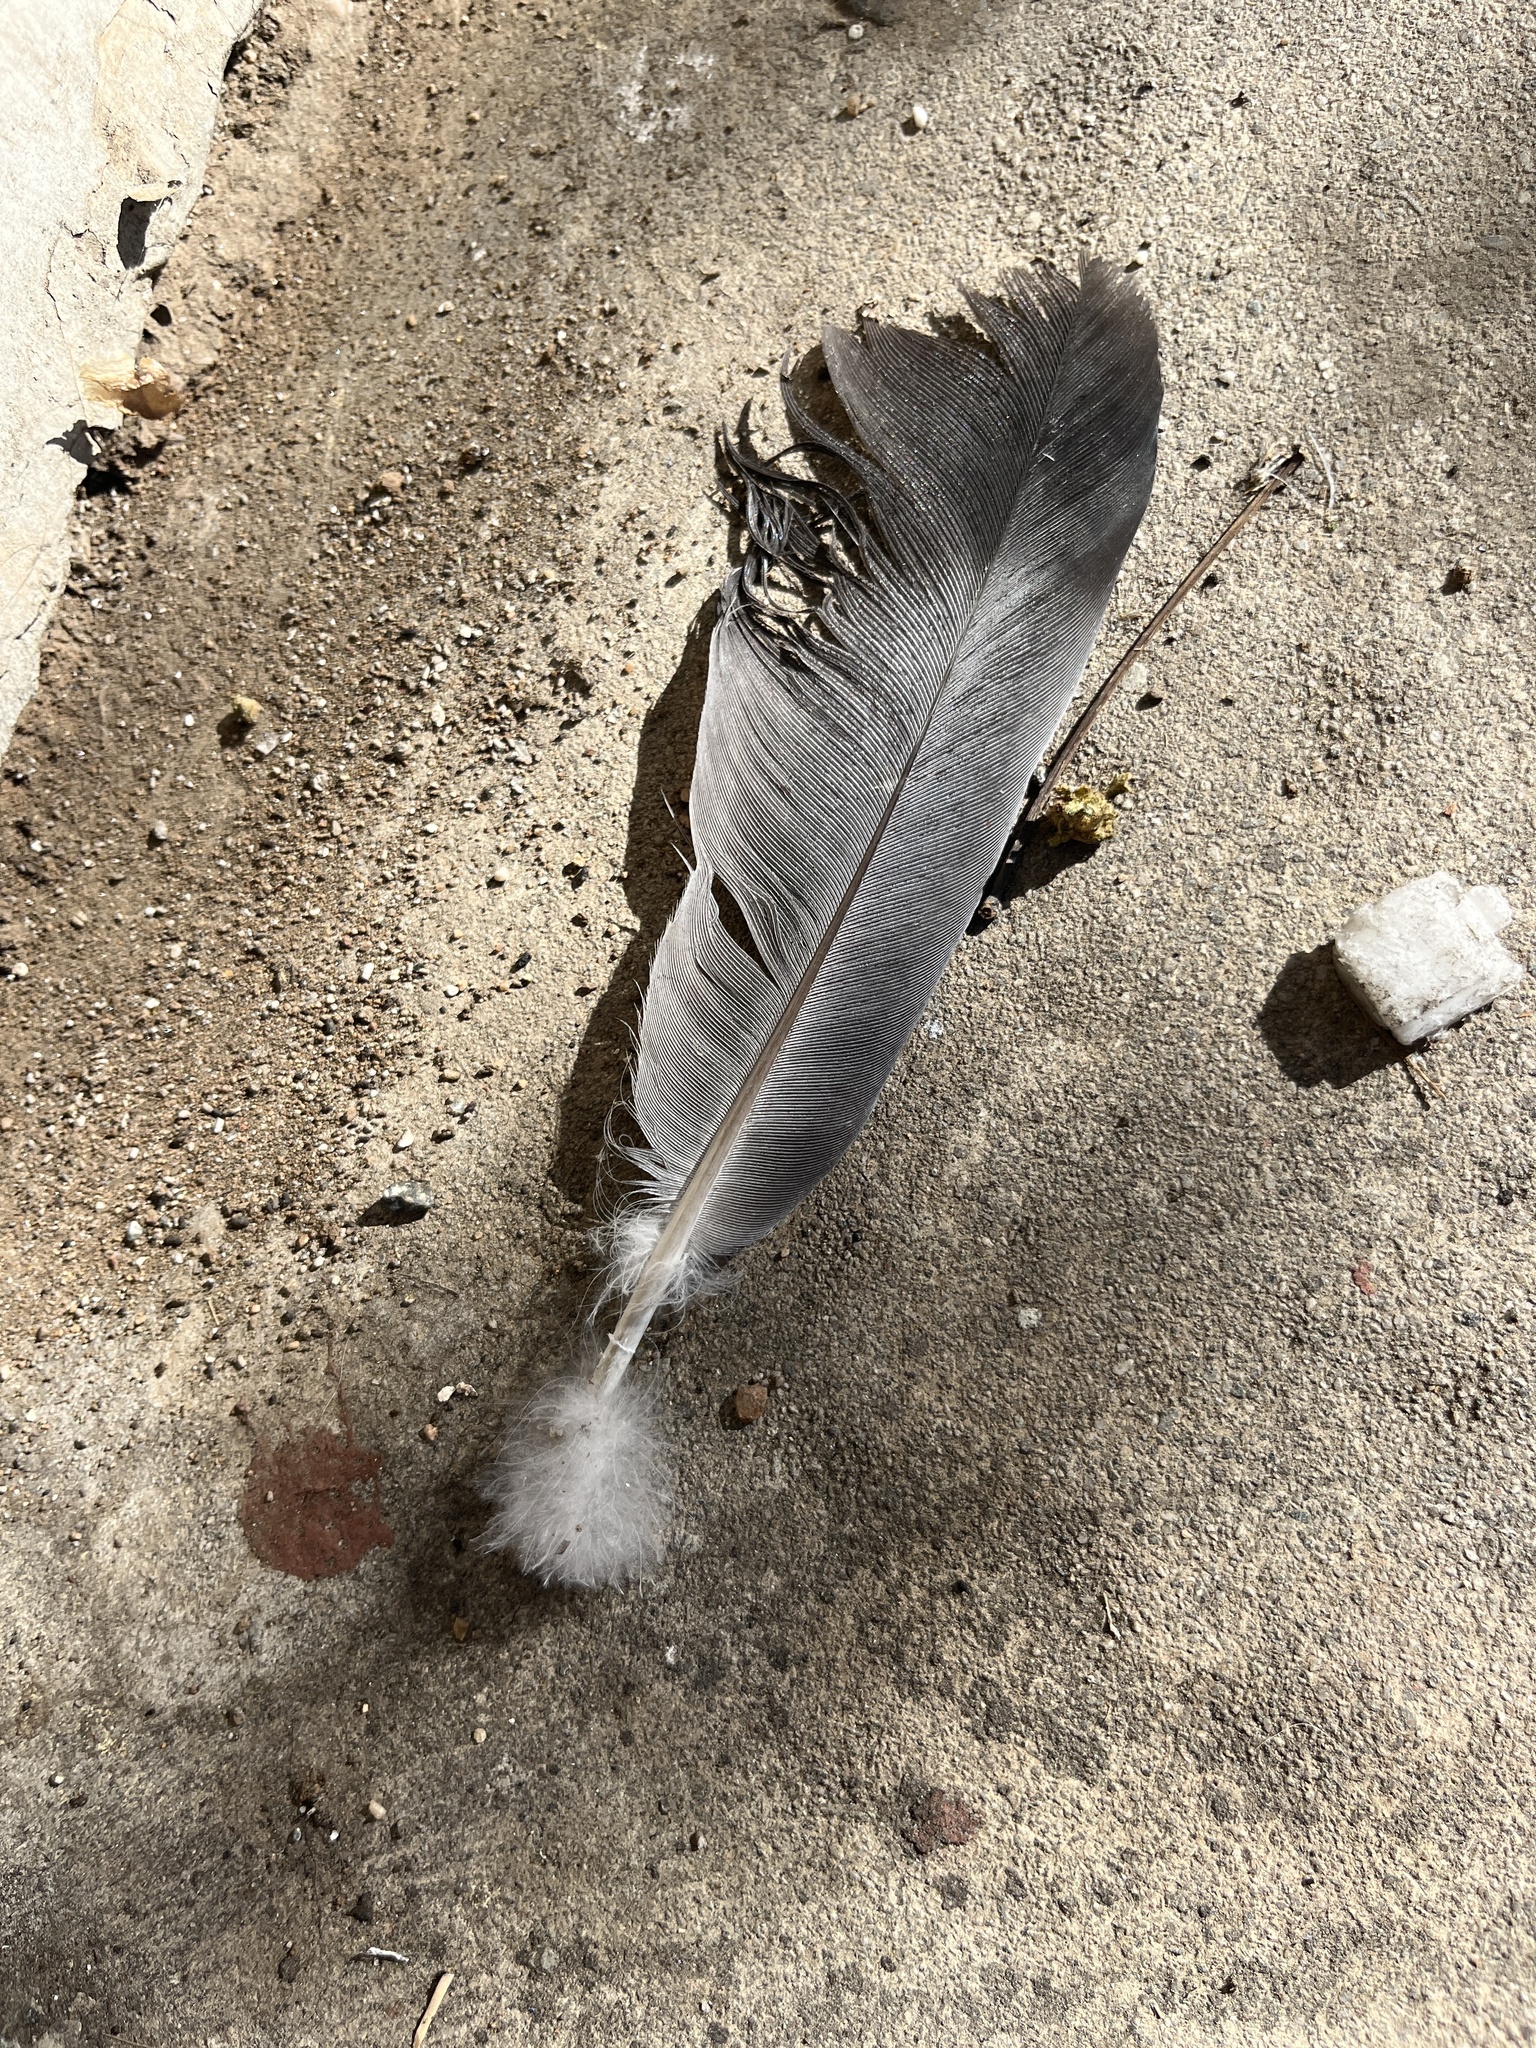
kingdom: Animalia
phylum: Chordata
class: Aves
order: Columbiformes
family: Columbidae
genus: Columba
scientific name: Columba livia
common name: Rock pigeon
